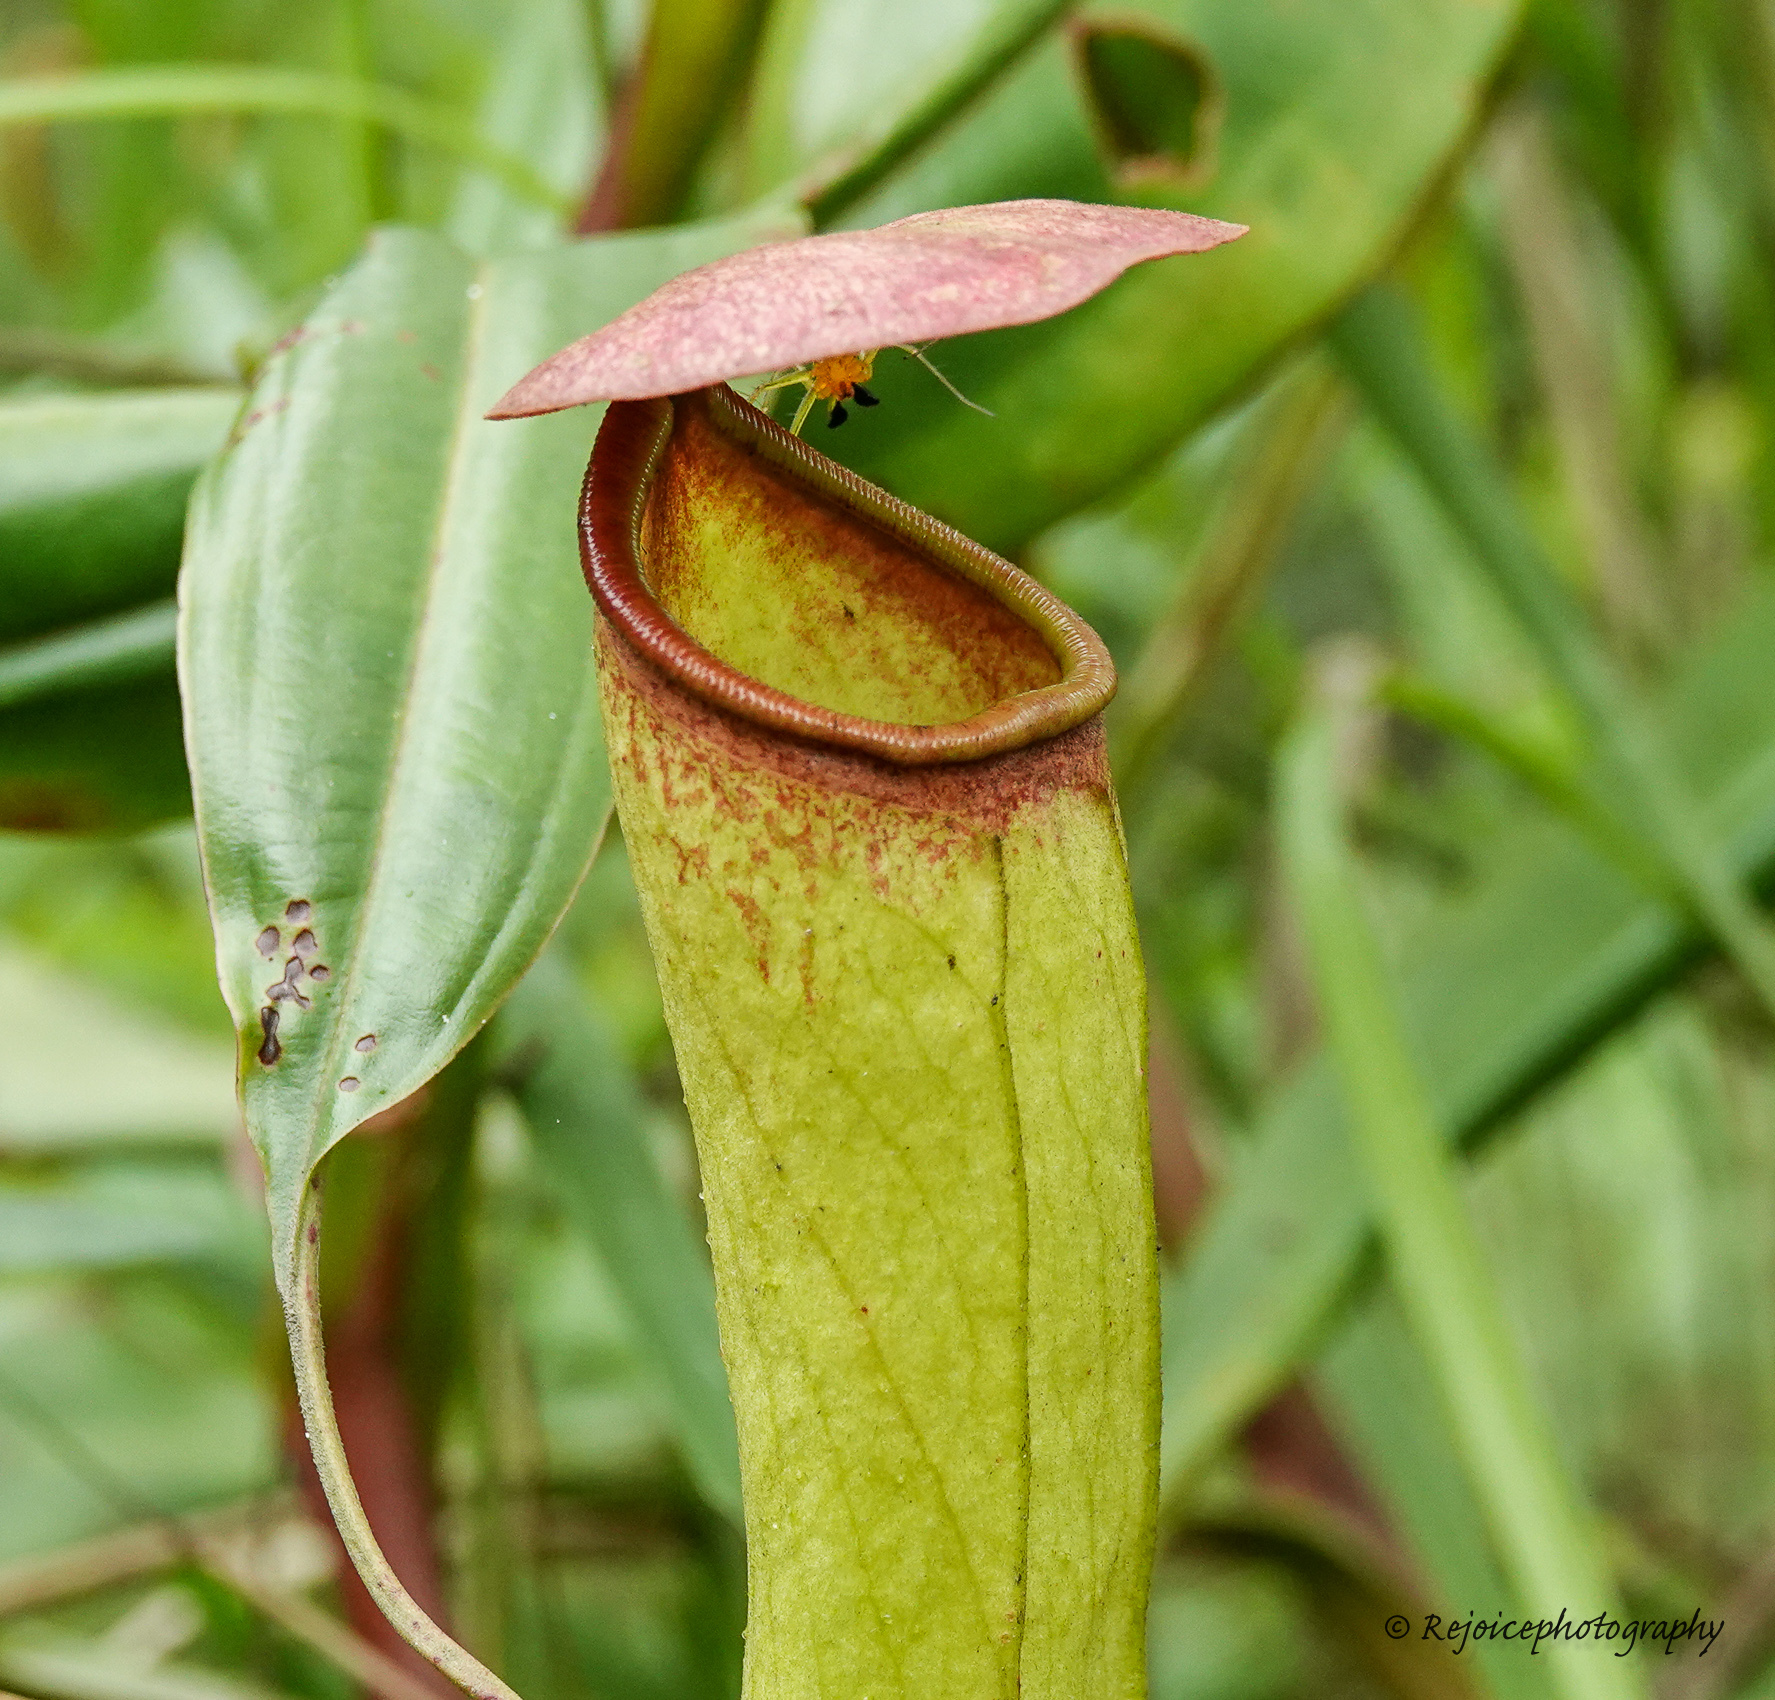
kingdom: Plantae
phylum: Tracheophyta
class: Magnoliopsida
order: Caryophyllales
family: Nepenthaceae
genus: Nepenthes
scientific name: Nepenthes khasiana
